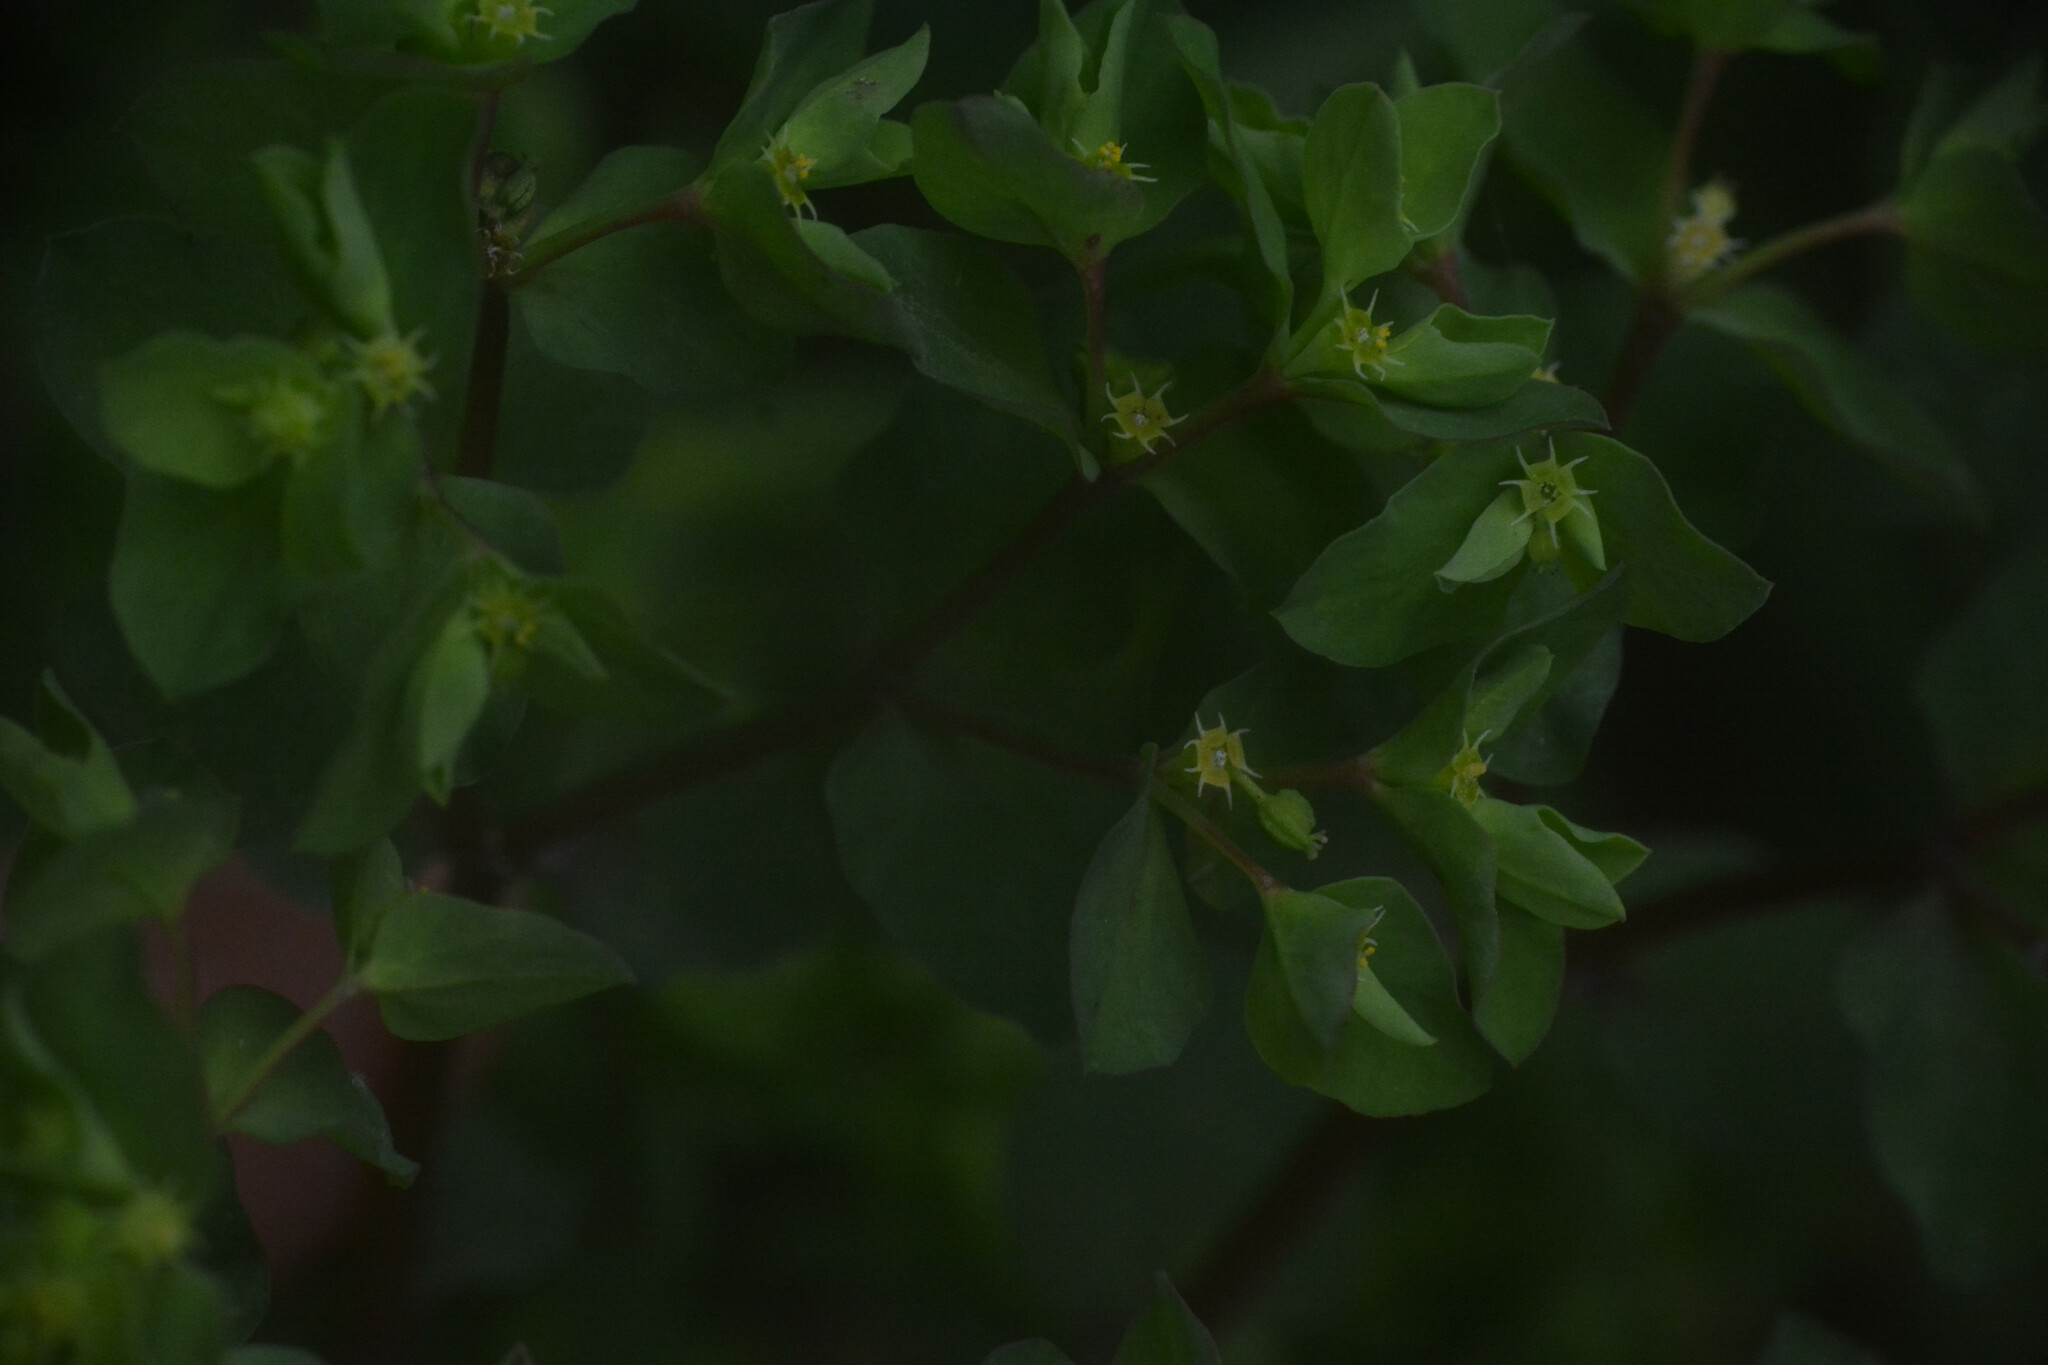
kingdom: Plantae
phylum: Tracheophyta
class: Magnoliopsida
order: Malpighiales
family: Euphorbiaceae
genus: Euphorbia
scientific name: Euphorbia peplus
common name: Petty spurge
